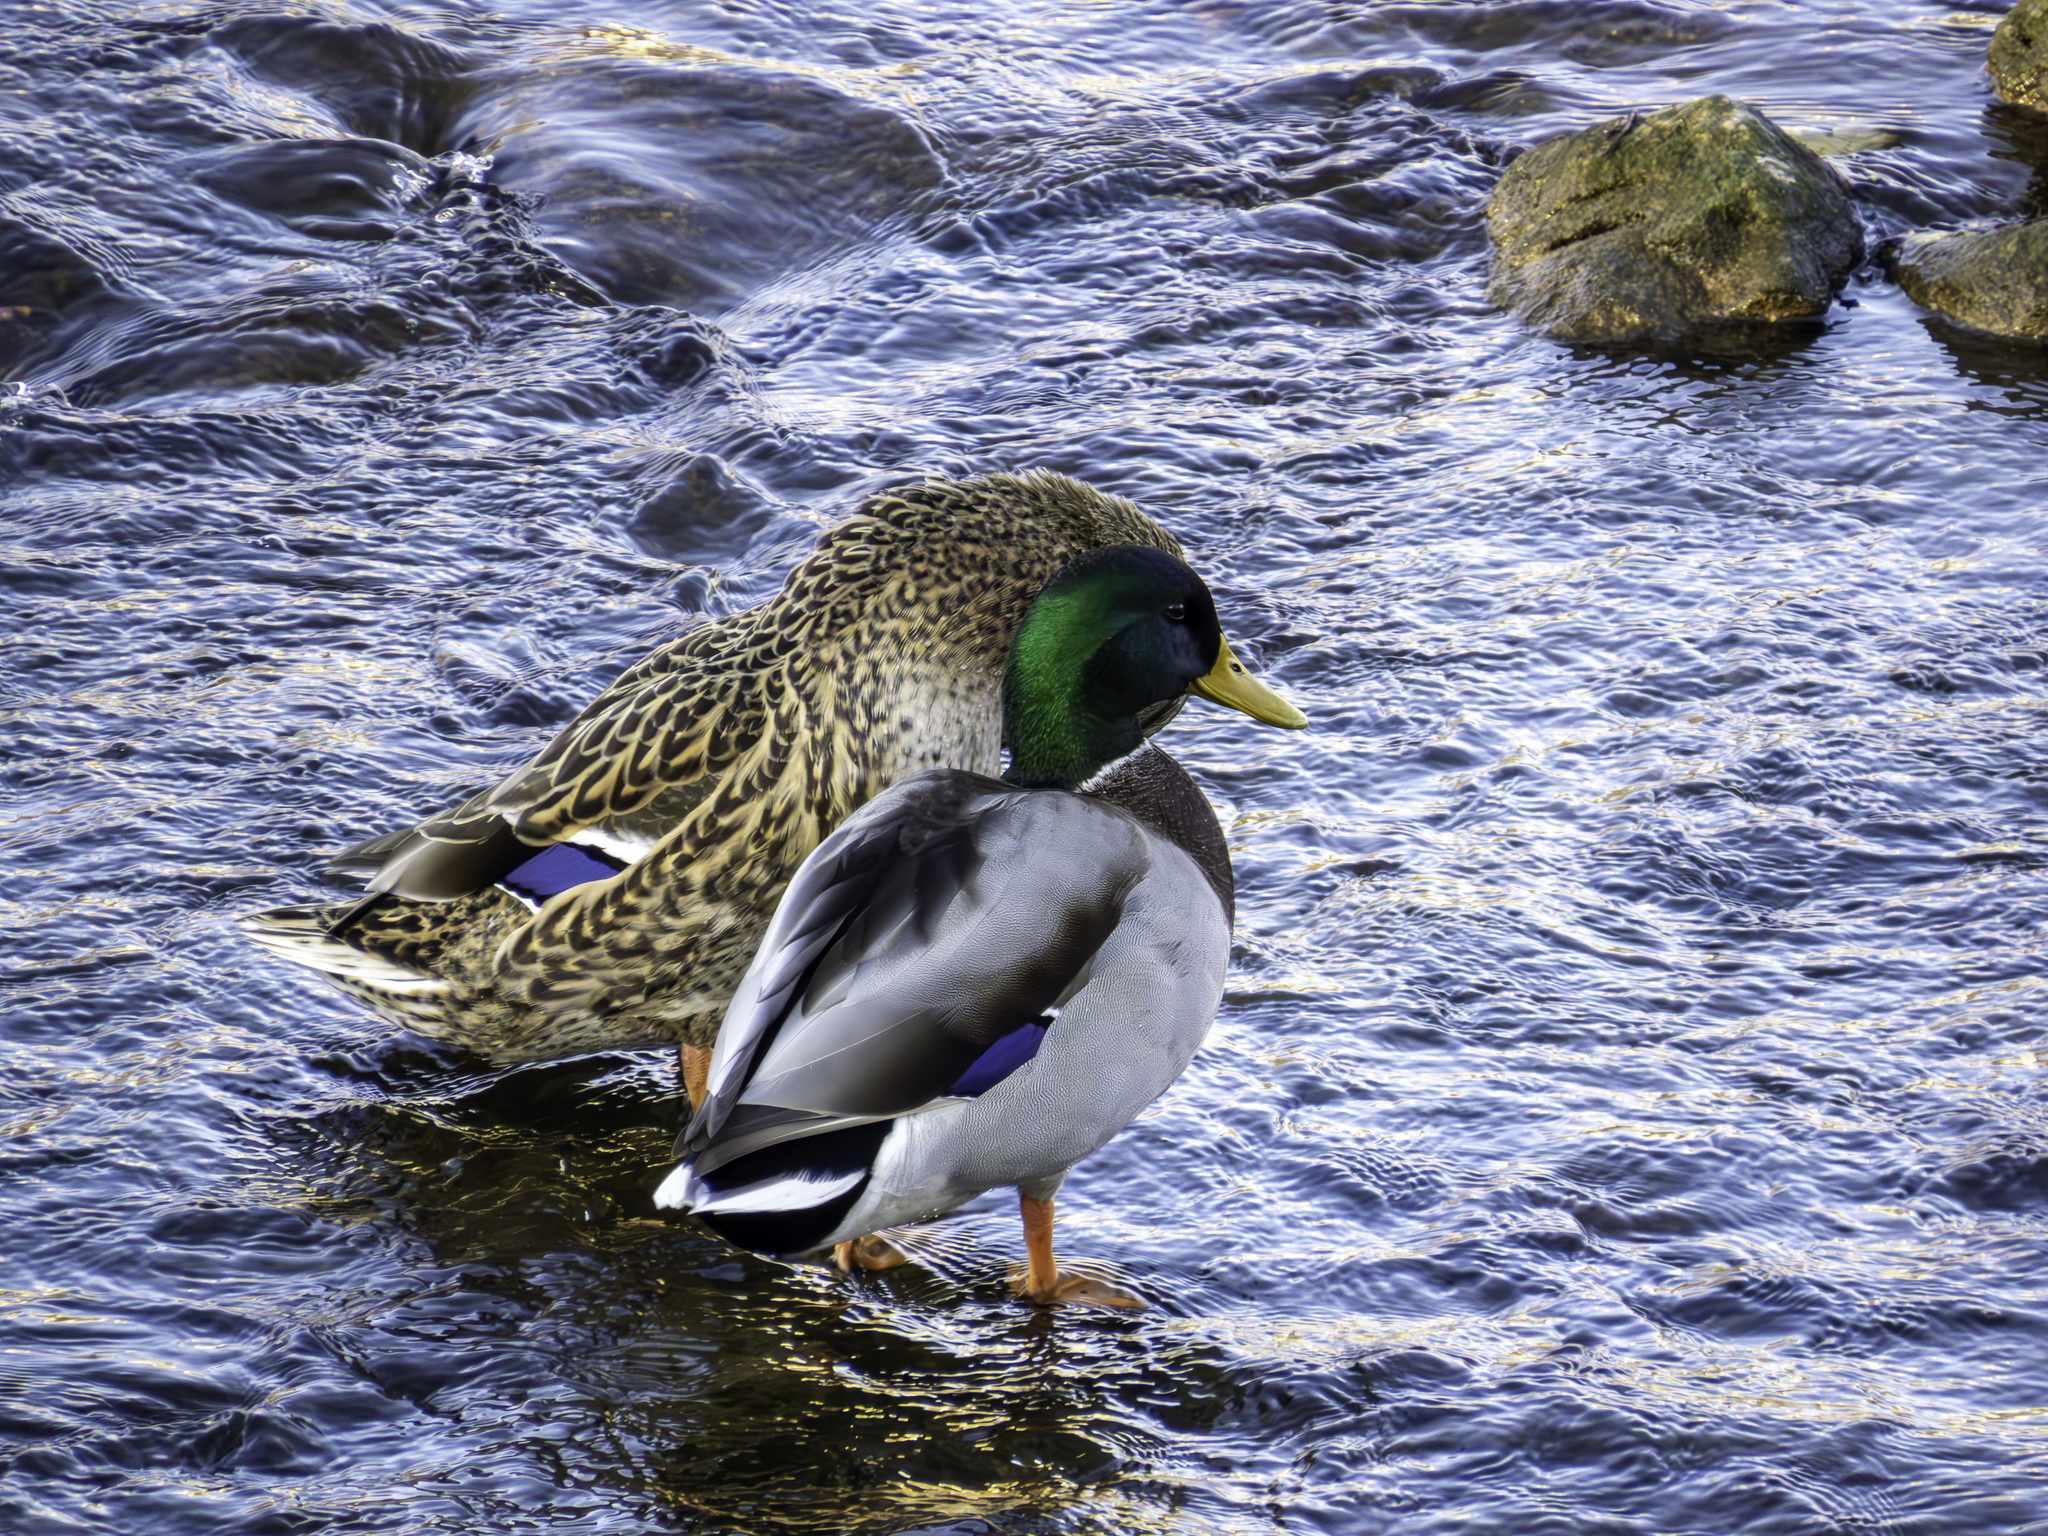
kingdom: Animalia
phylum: Chordata
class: Aves
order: Anseriformes
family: Anatidae
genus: Anas
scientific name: Anas platyrhynchos
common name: Mallard
